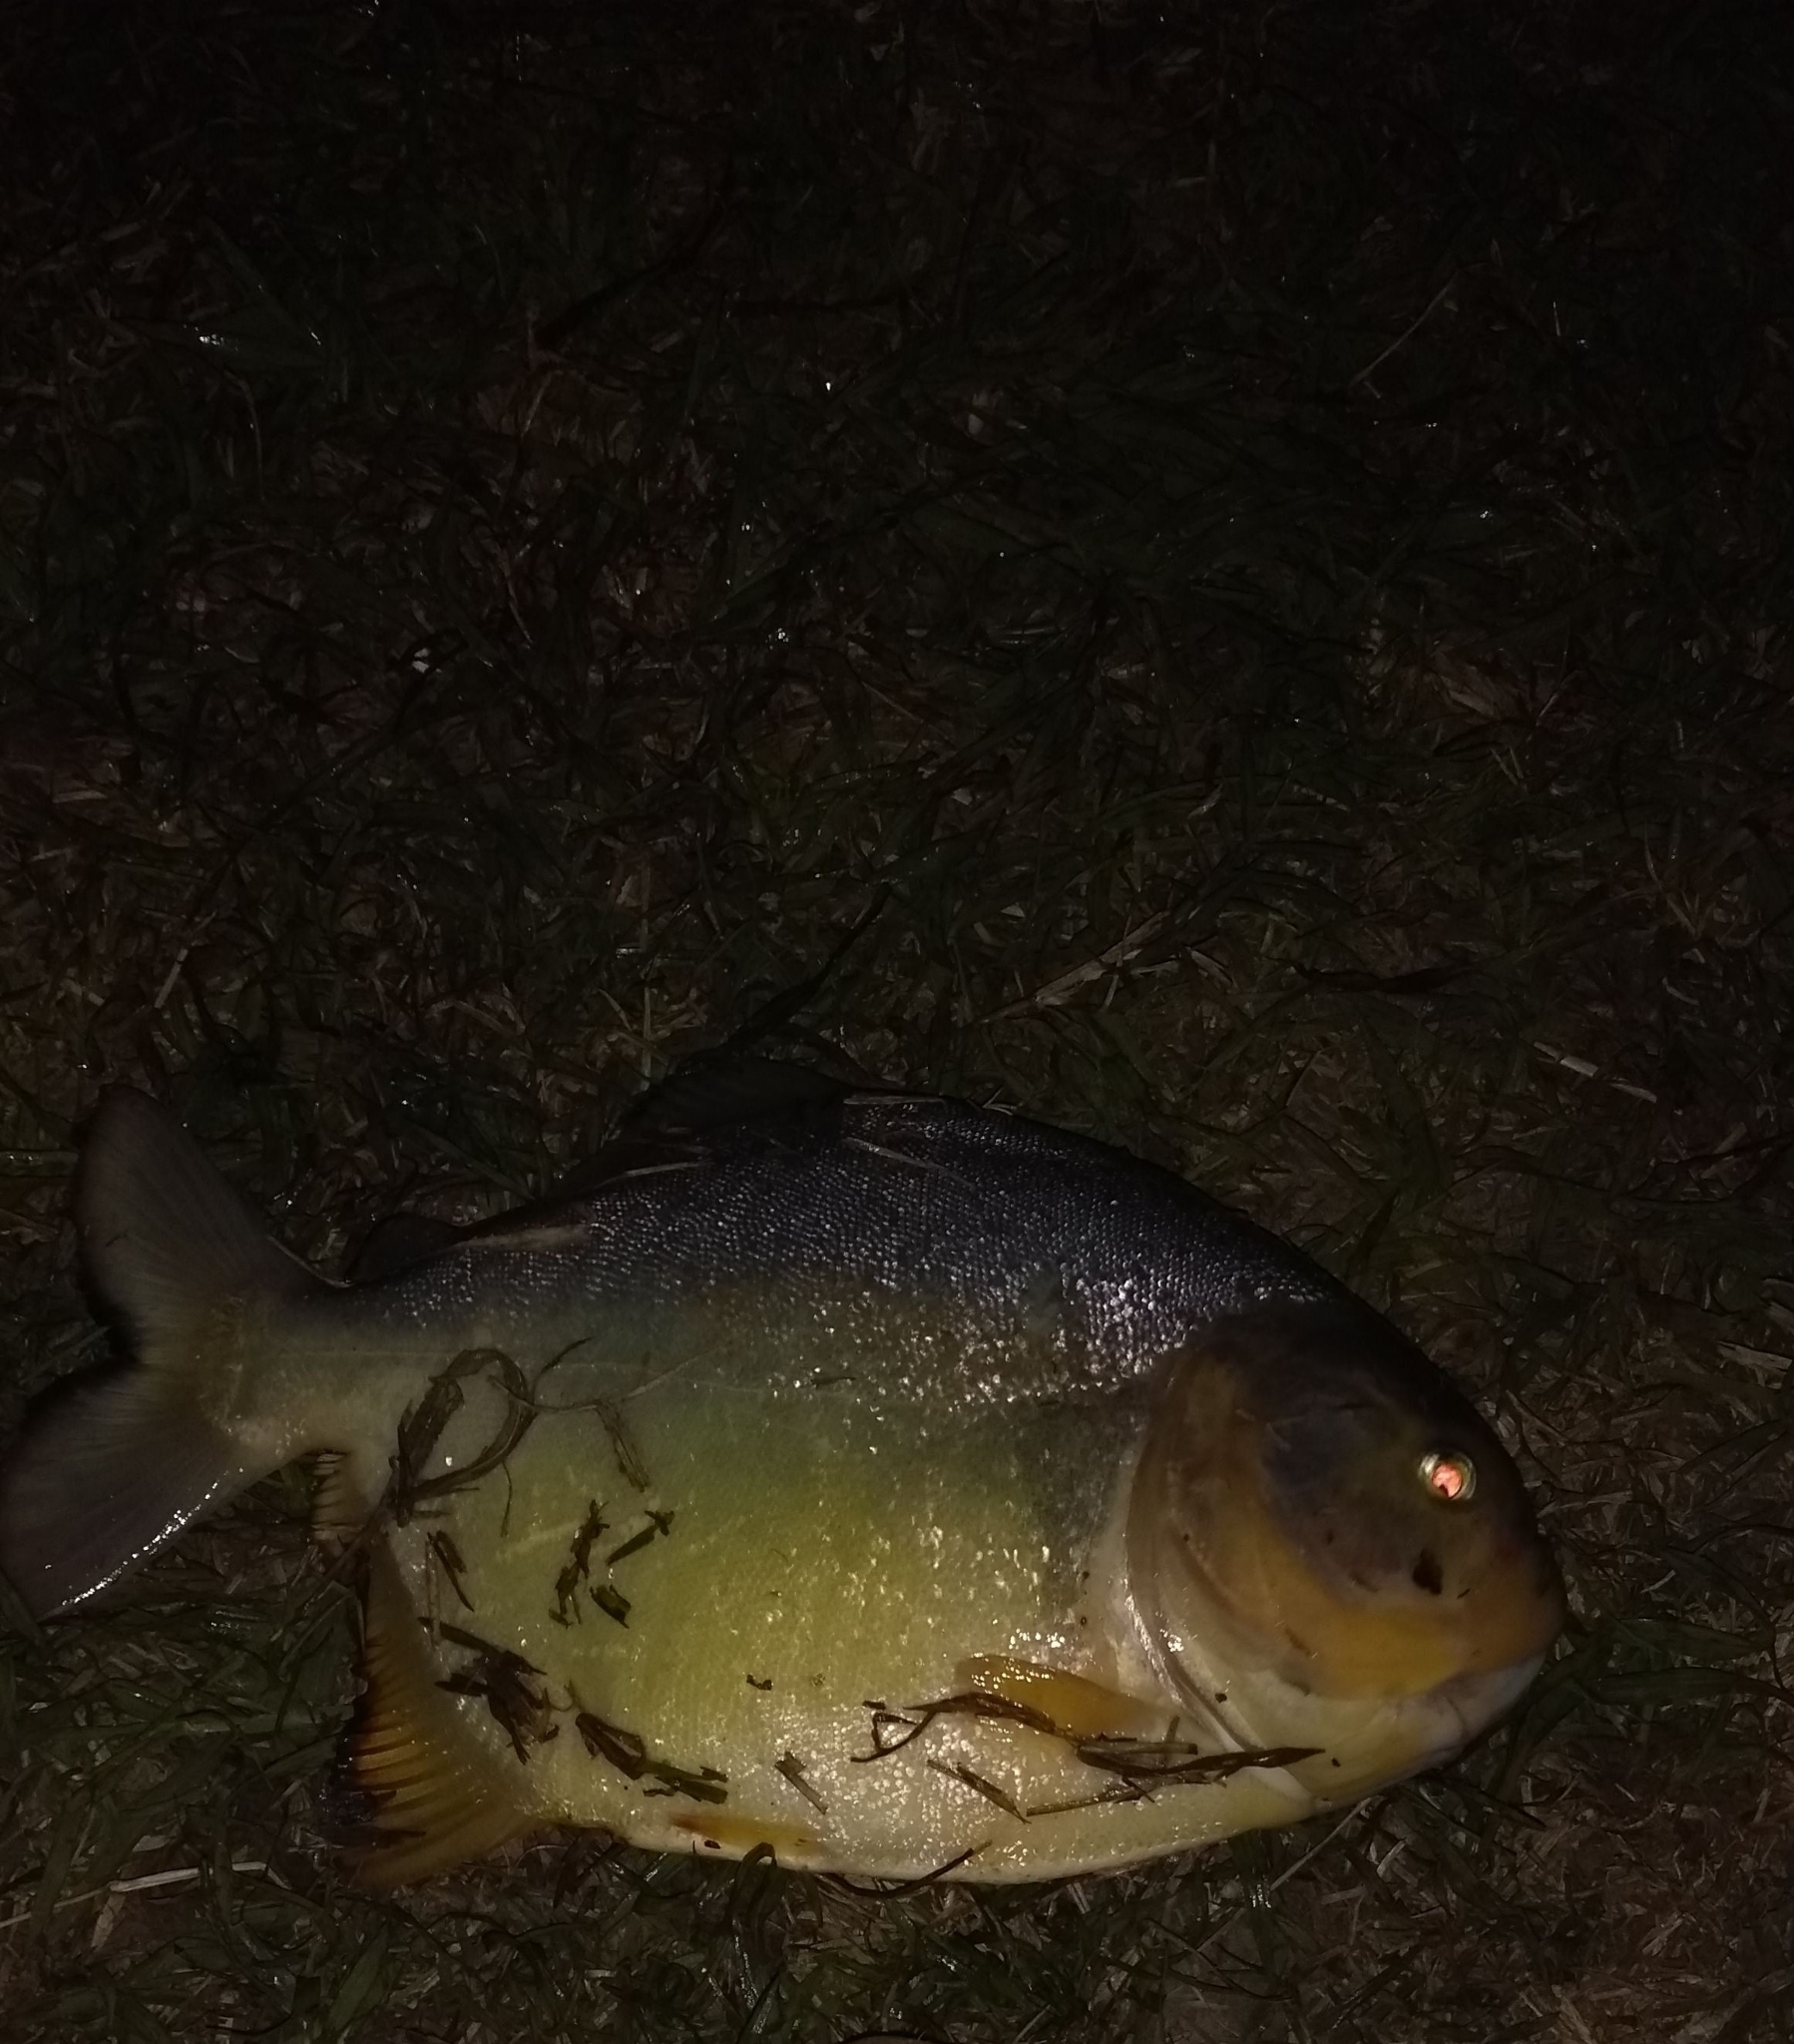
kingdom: Animalia
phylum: Chordata
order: Characiformes
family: Serrasalmidae
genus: Pygocentrus
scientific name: Pygocentrus nattereri
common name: Piranha
